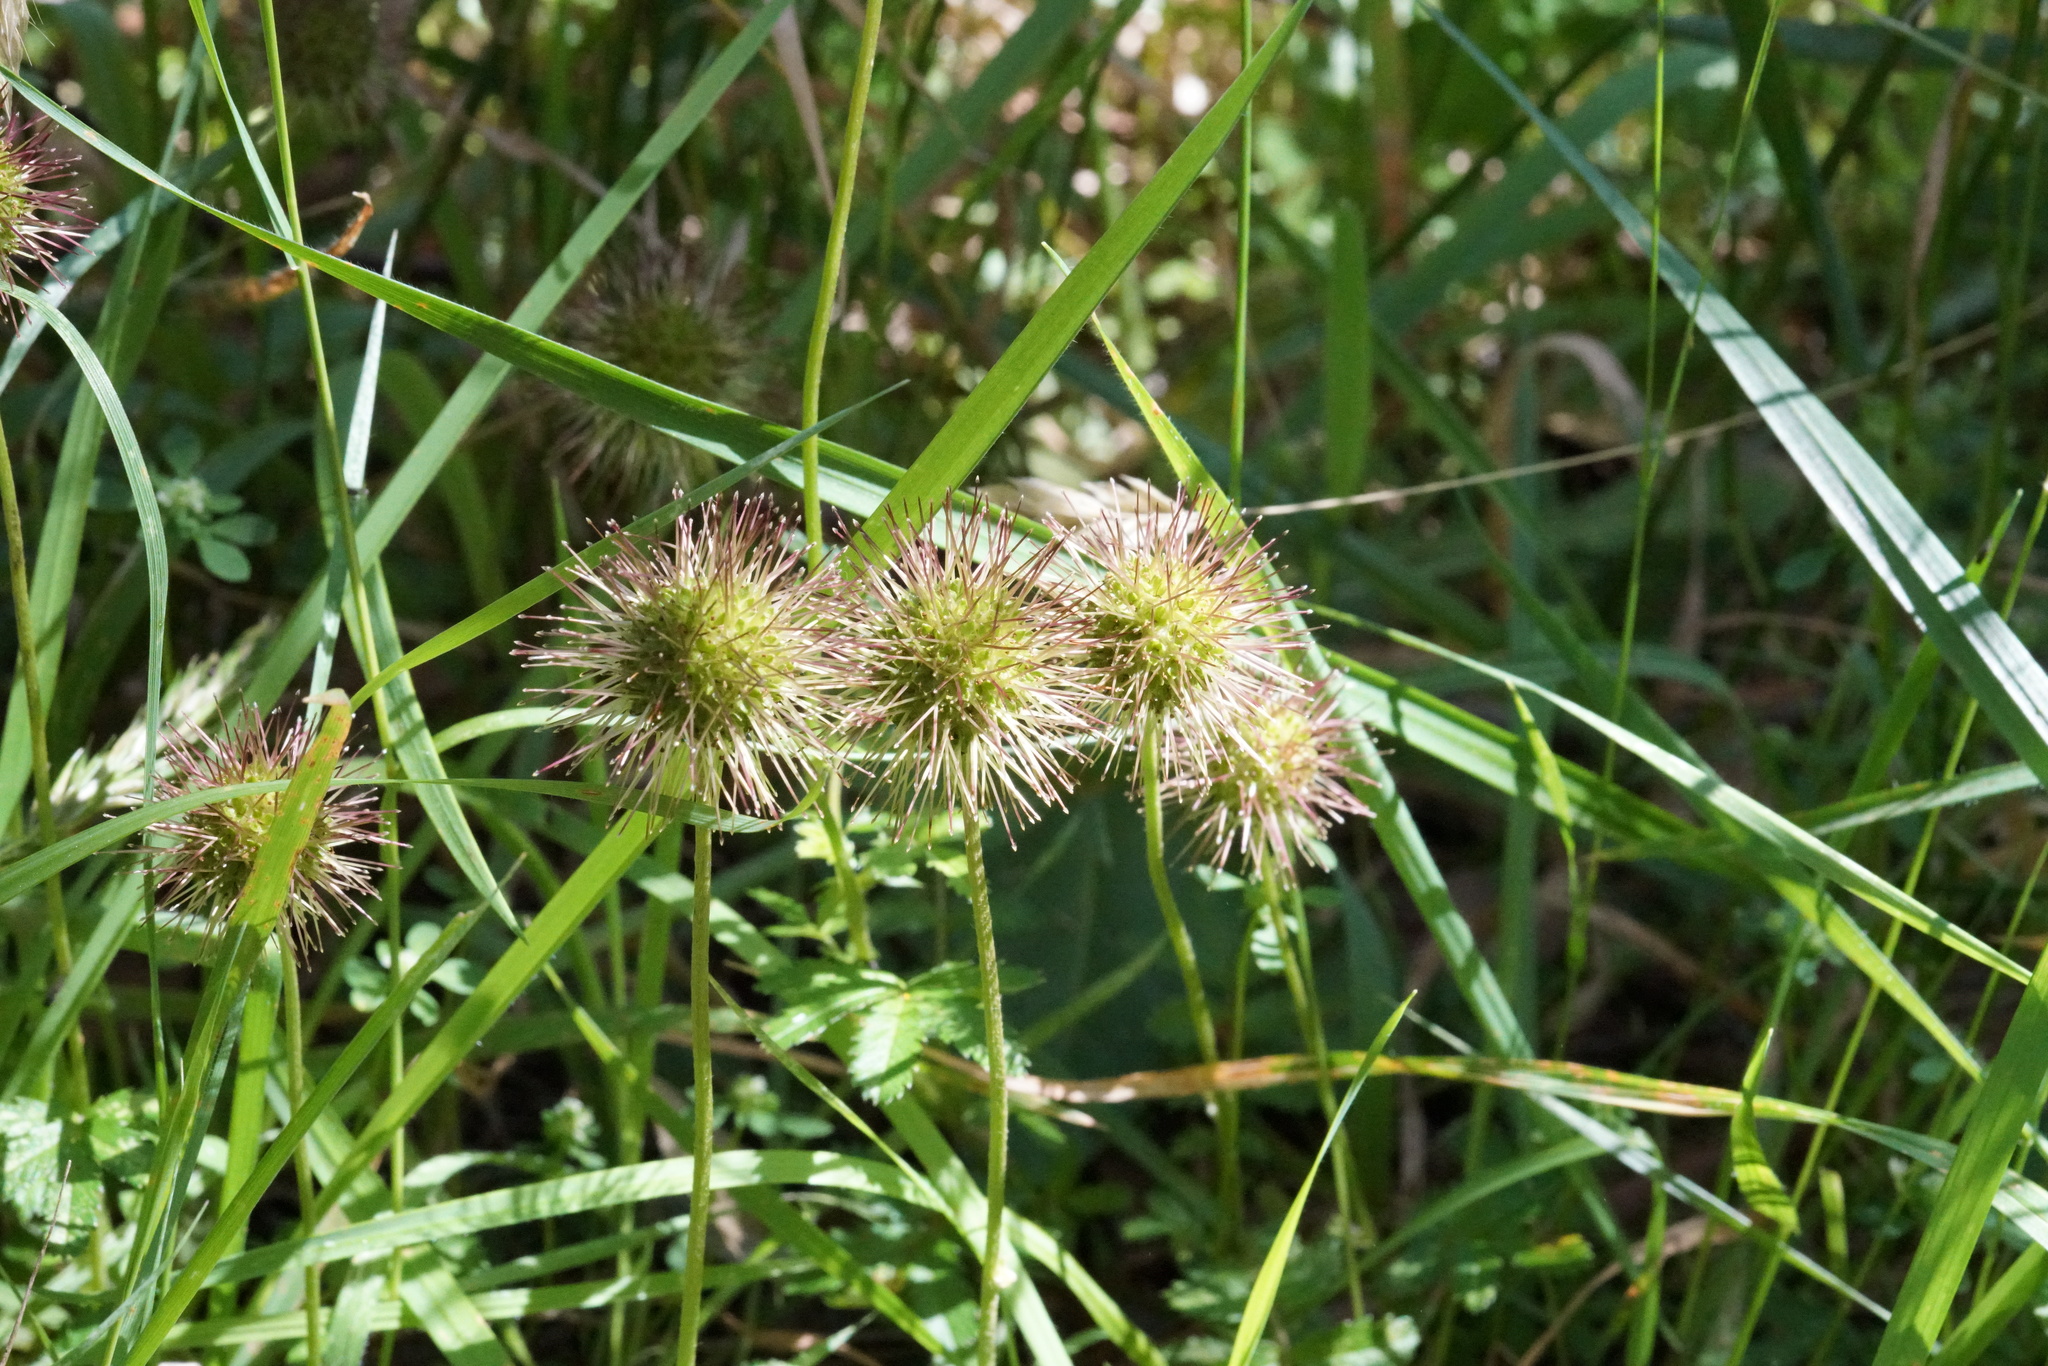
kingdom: Plantae
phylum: Tracheophyta
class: Magnoliopsida
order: Rosales
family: Rosaceae
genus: Acaena
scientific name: Acaena novae-zelandiae
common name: Pirri-pirri-bur
